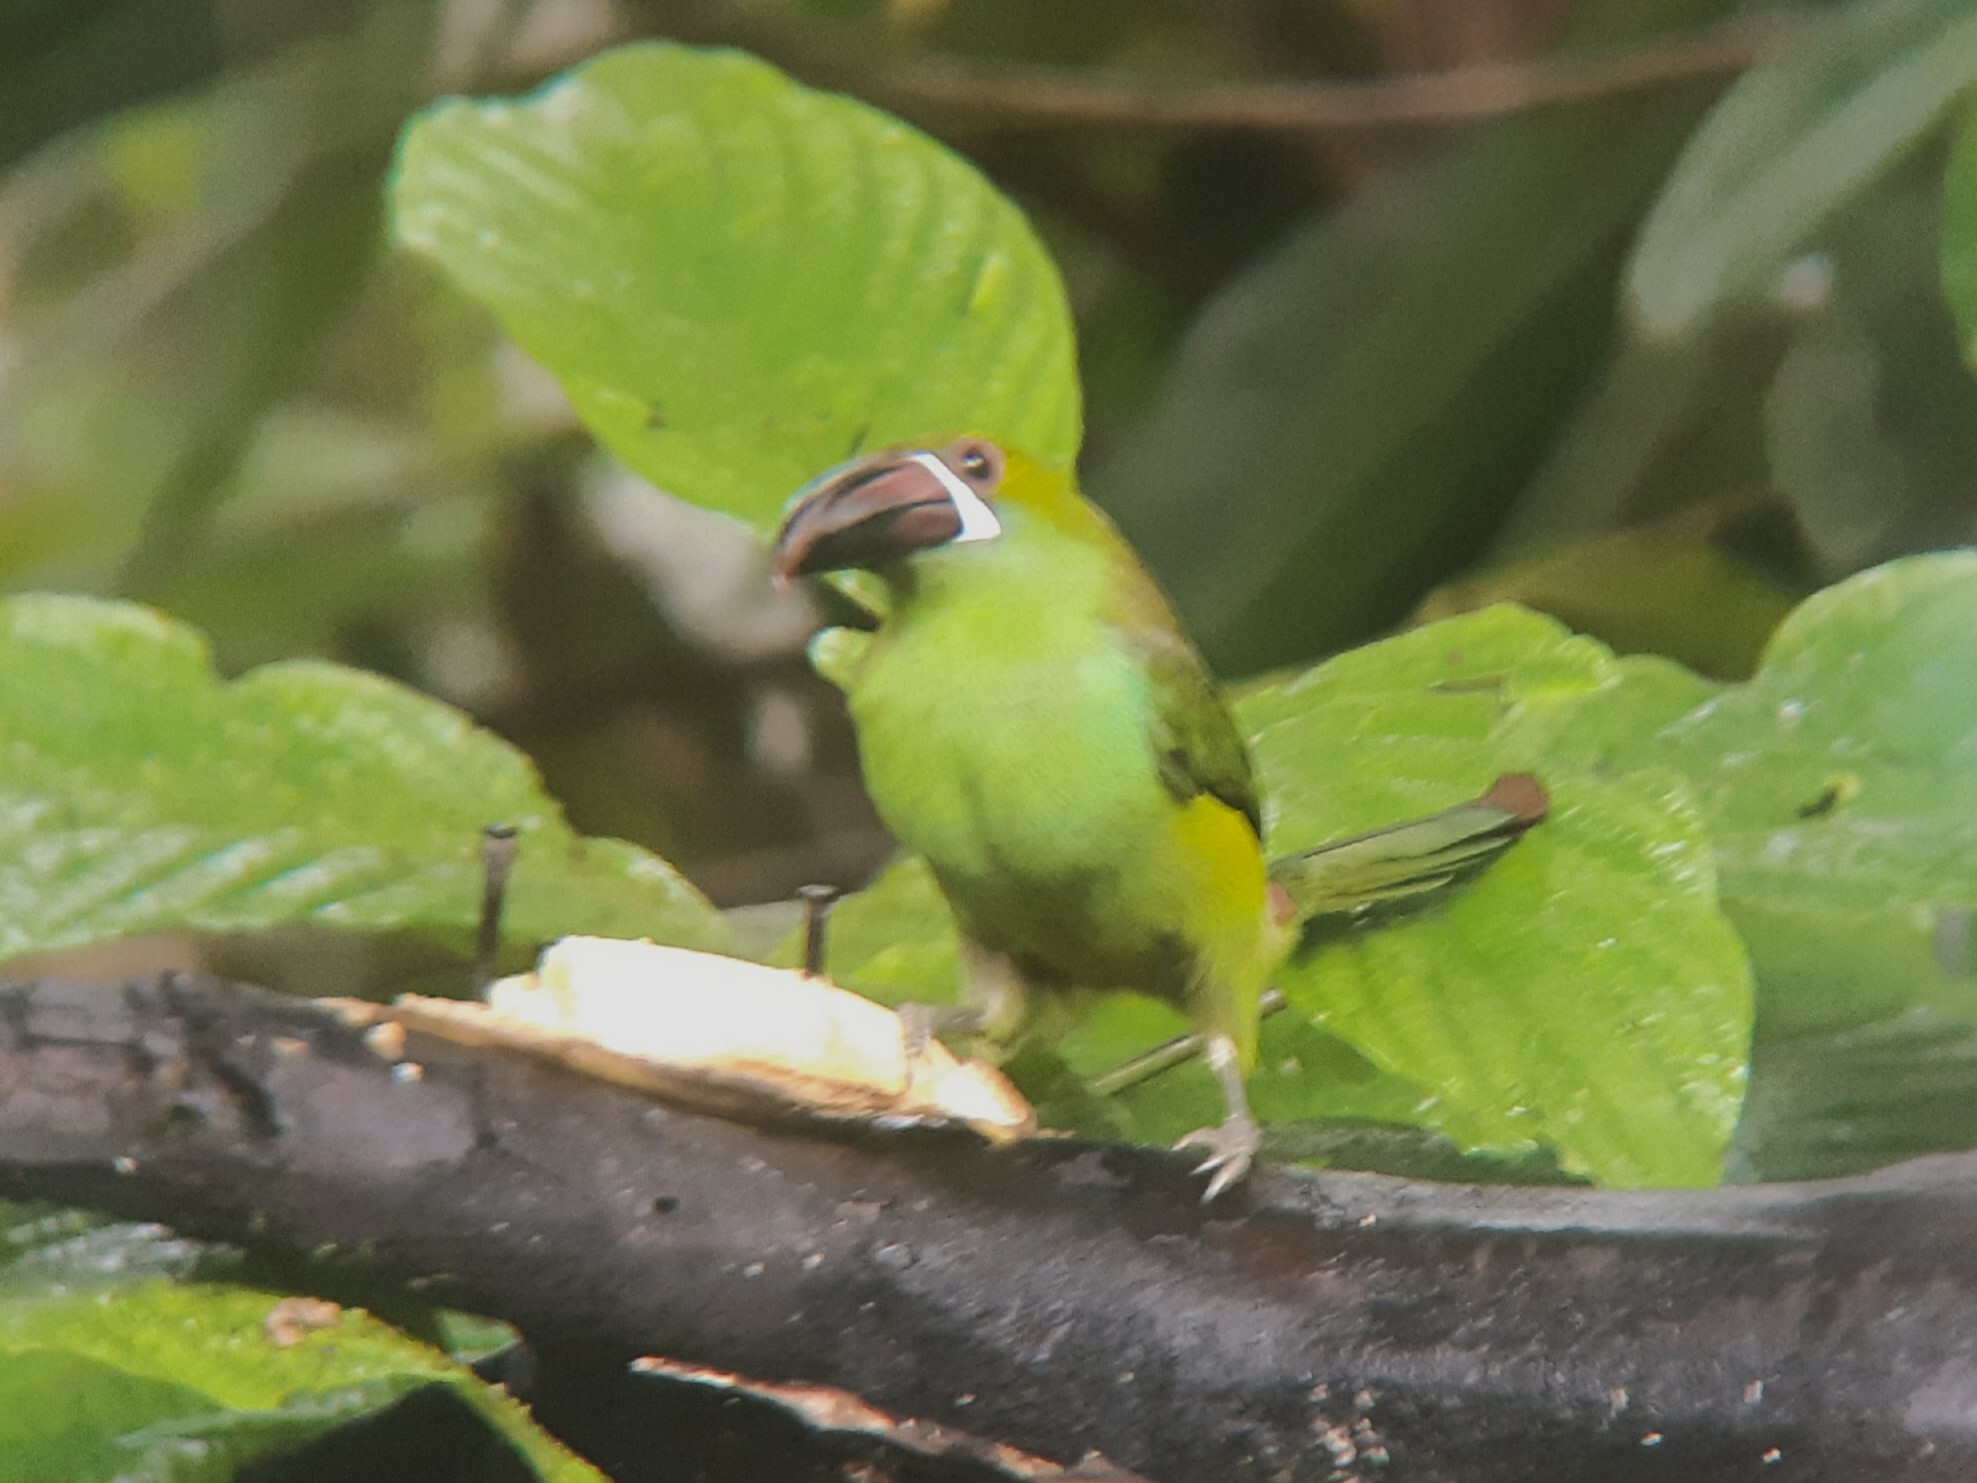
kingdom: Animalia
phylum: Chordata
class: Aves
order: Piciformes
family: Ramphastidae
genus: Aulacorhynchus
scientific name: Aulacorhynchus haematopygus
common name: Crimson-rumped toucanet
